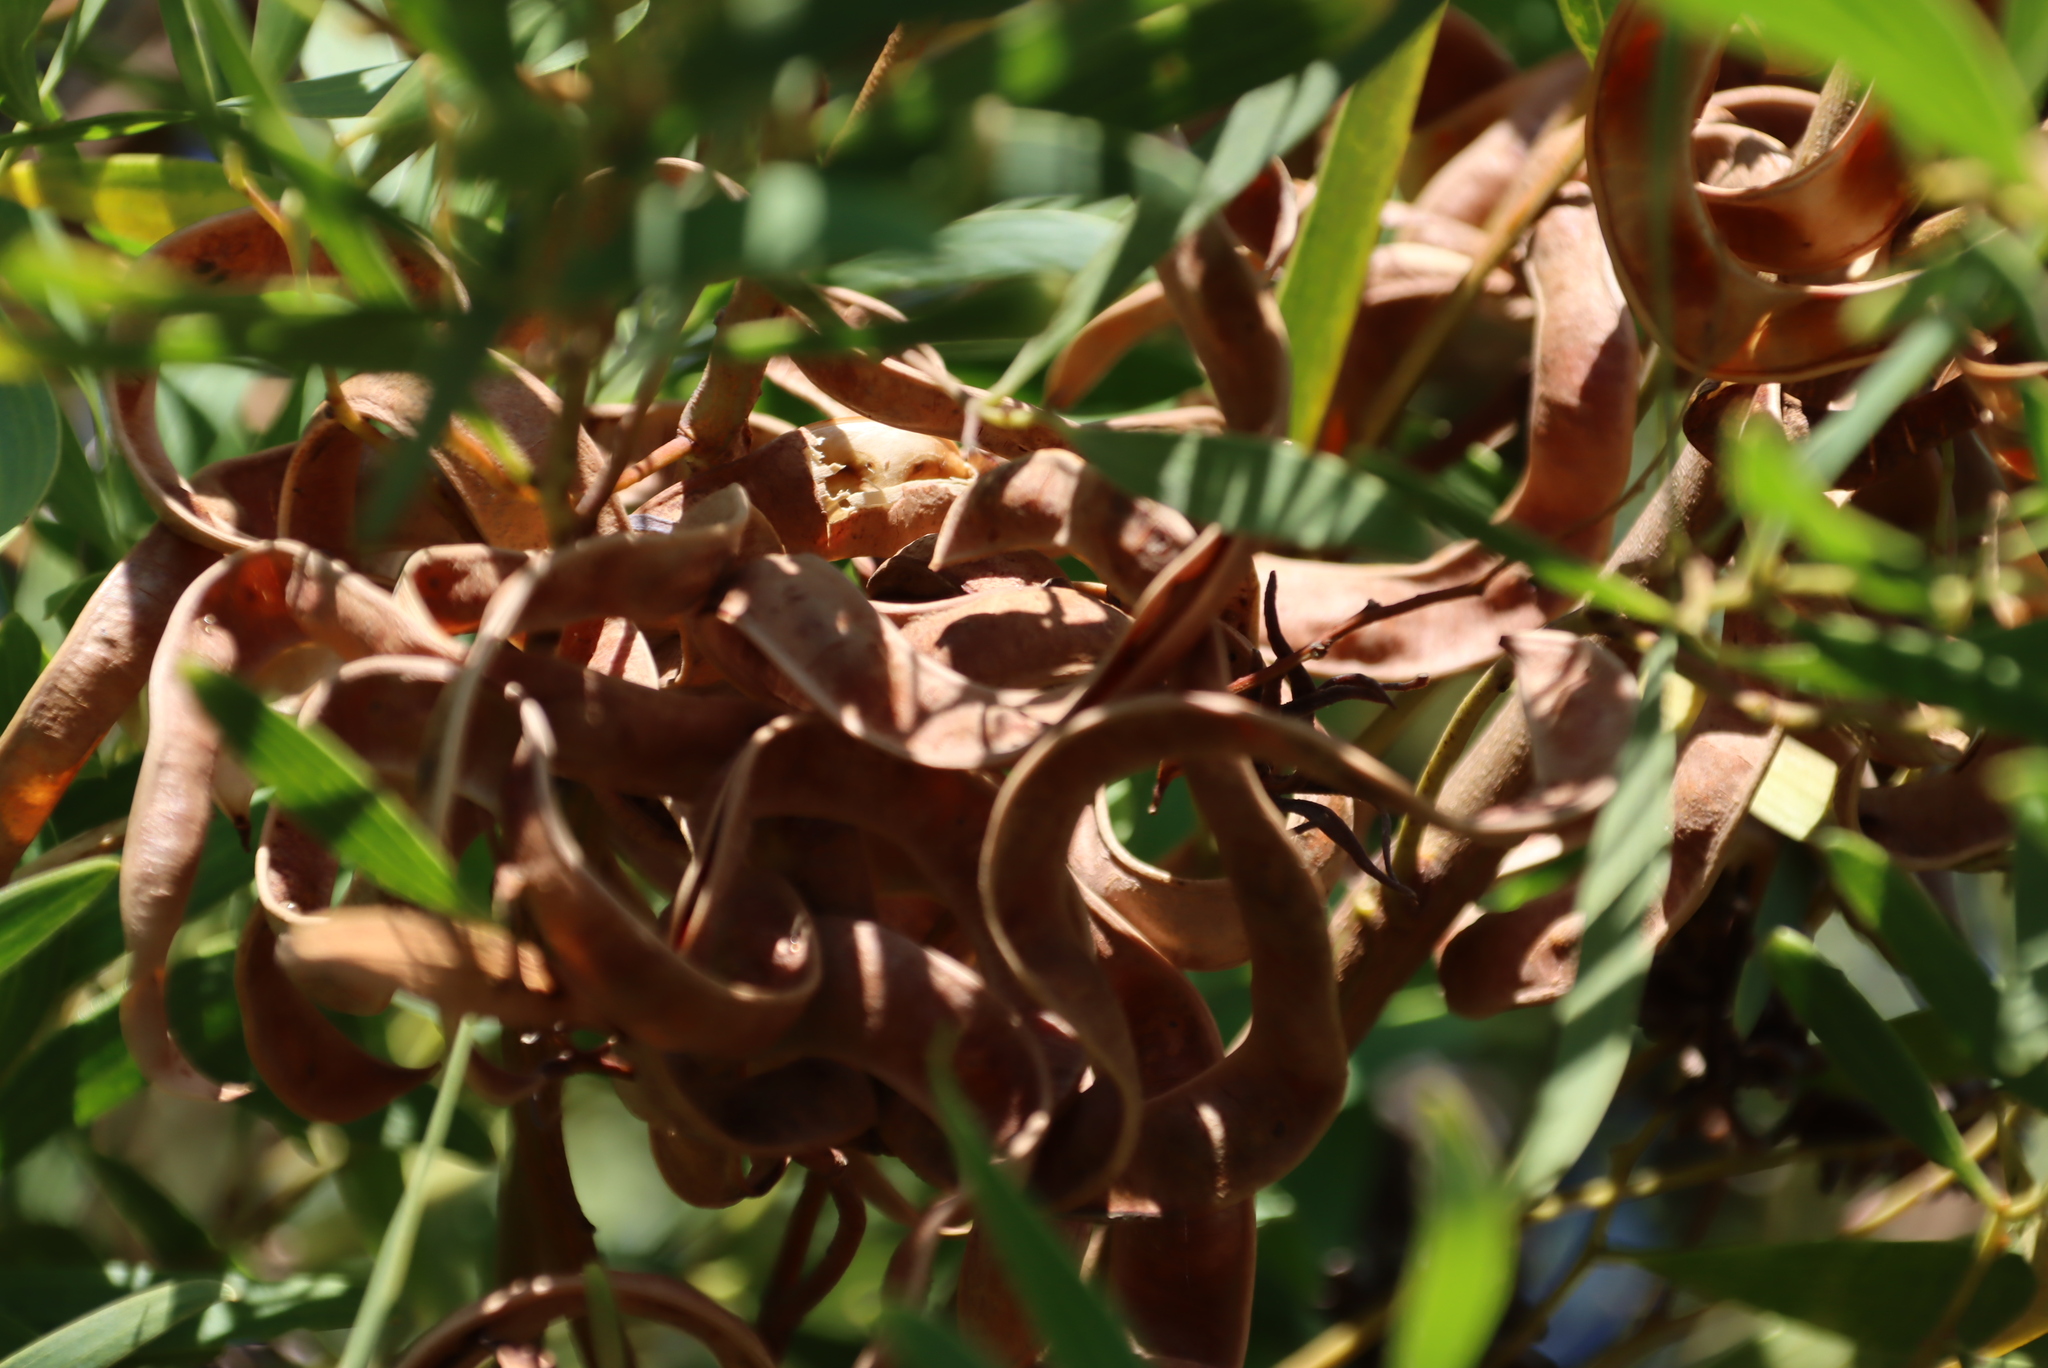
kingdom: Plantae
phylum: Tracheophyta
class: Magnoliopsida
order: Fabales
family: Fabaceae
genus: Acacia
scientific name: Acacia cyclops
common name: Coastal wattle
